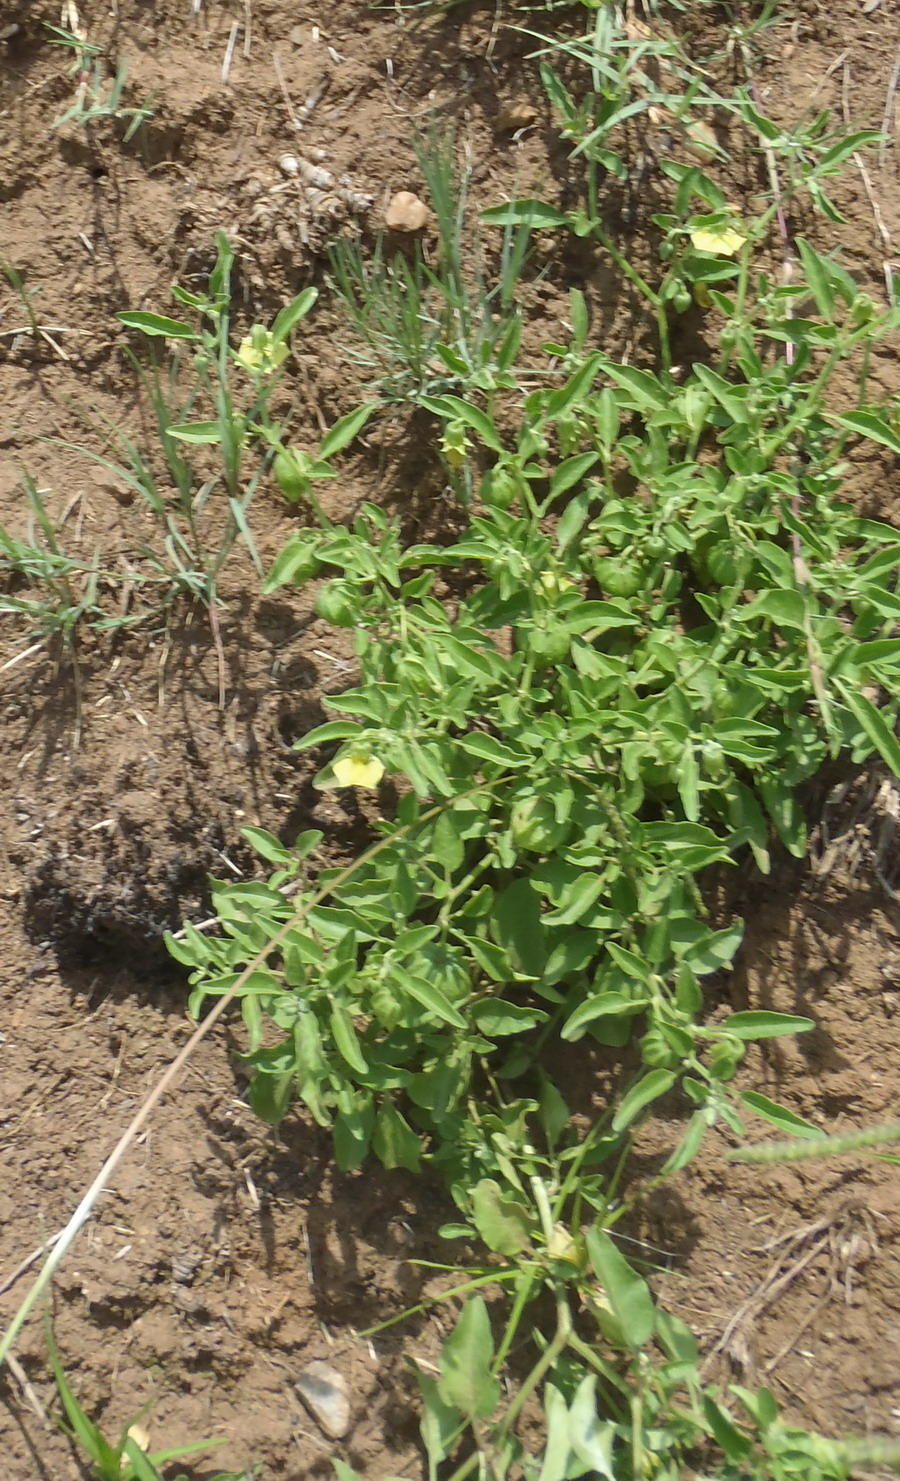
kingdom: Plantae
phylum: Tracheophyta
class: Magnoliopsida
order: Solanales
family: Solanaceae
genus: Physalis
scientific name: Physalis viscosa
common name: Stellate ground-cherry
